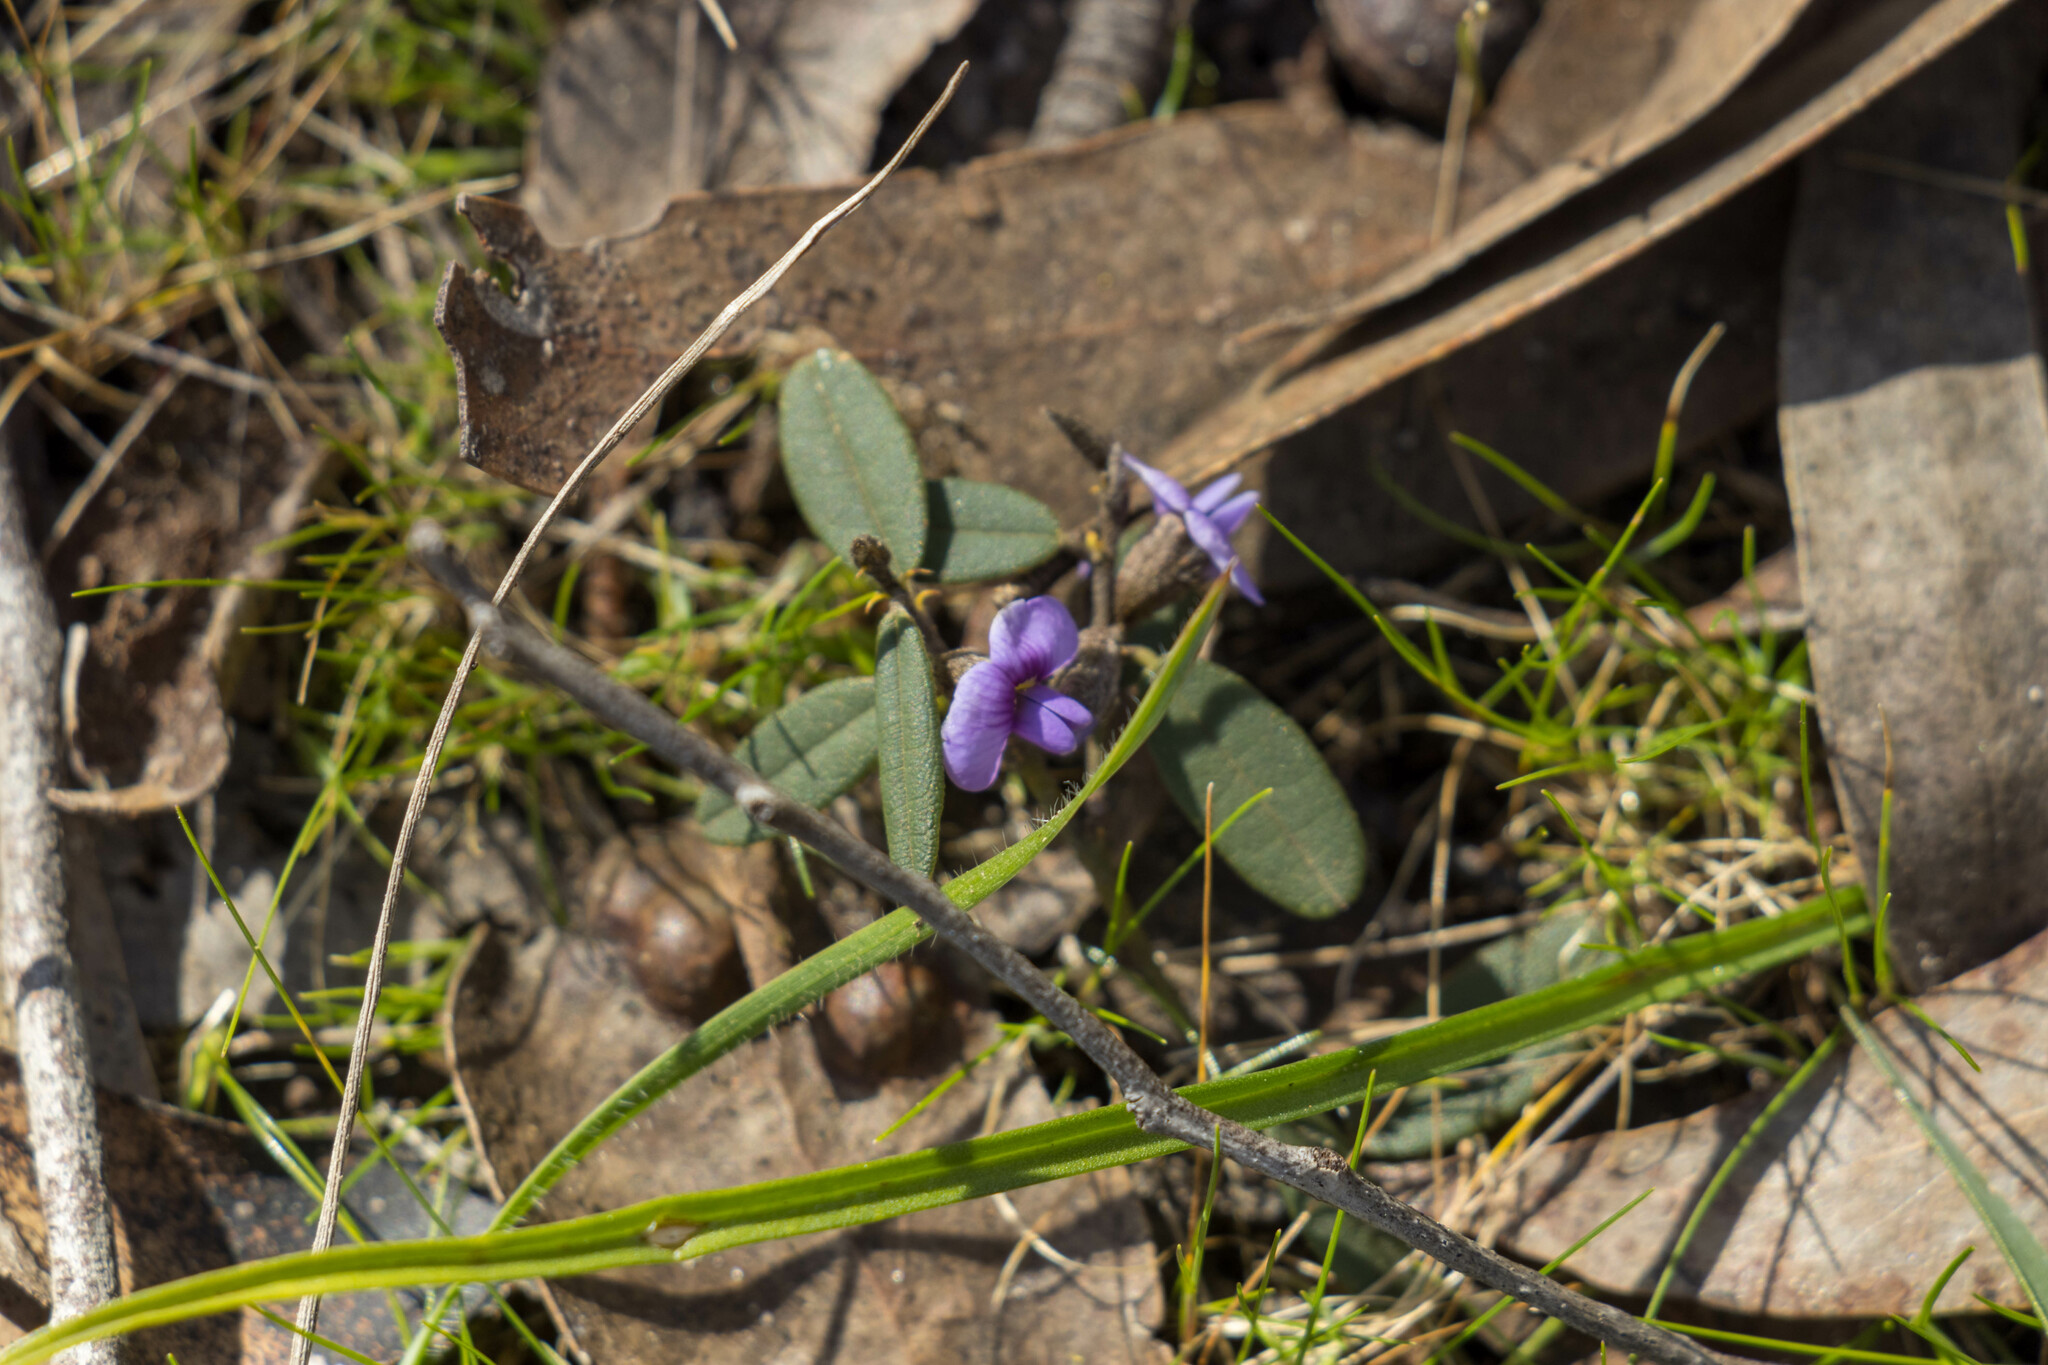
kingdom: Plantae
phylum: Tracheophyta
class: Magnoliopsida
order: Fabales
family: Fabaceae
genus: Hovea
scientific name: Hovea heterophylla
